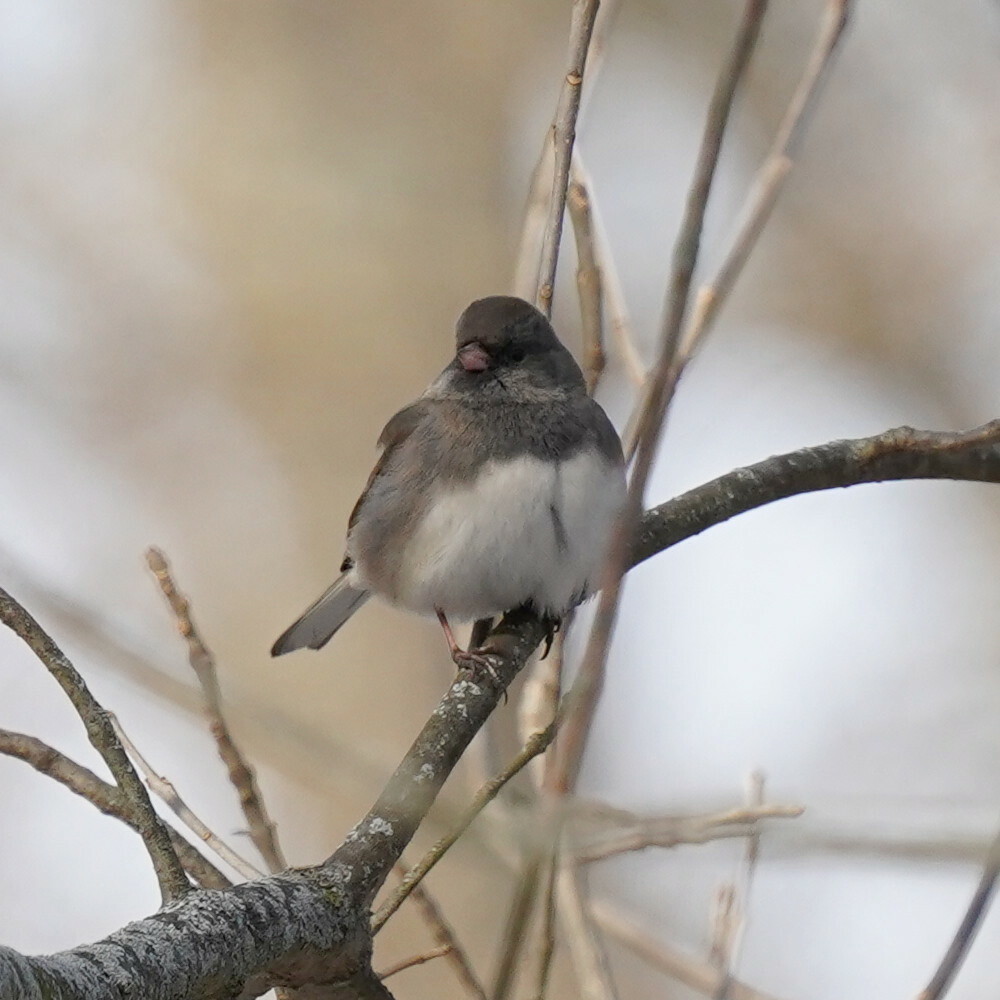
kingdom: Animalia
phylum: Chordata
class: Aves
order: Passeriformes
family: Passerellidae
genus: Junco
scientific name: Junco hyemalis
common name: Dark-eyed junco
